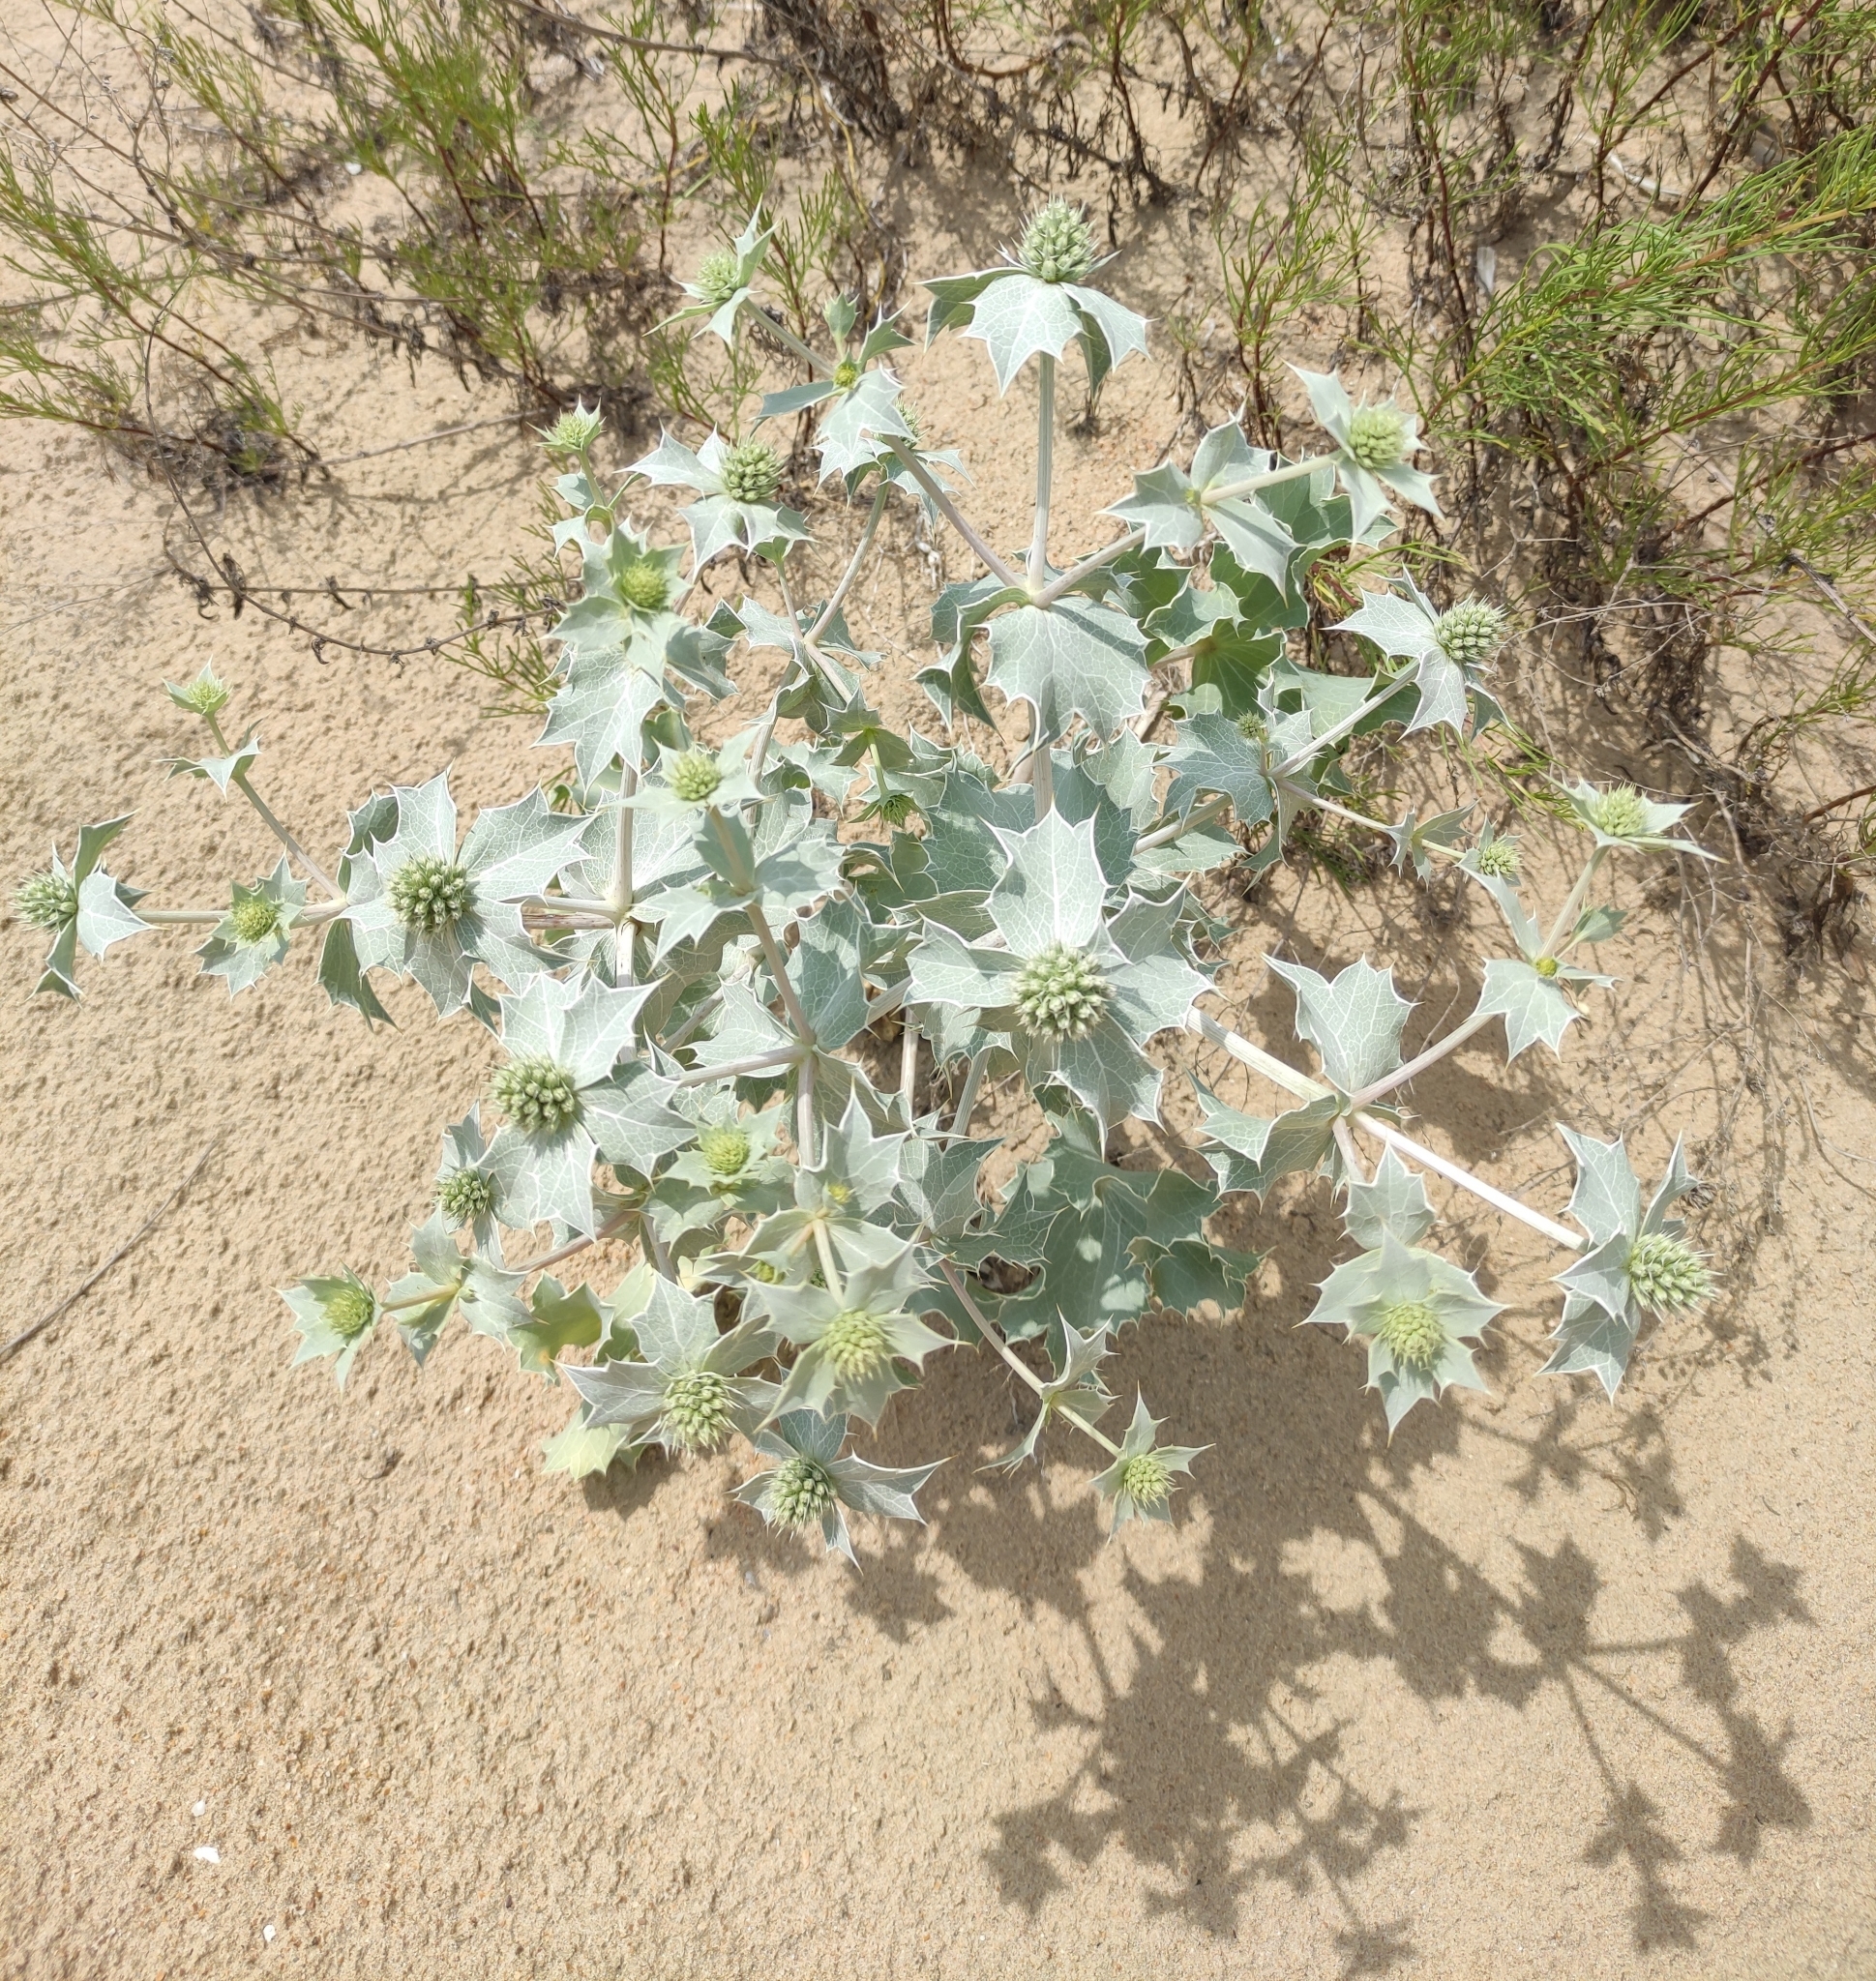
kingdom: Plantae
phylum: Tracheophyta
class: Magnoliopsida
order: Apiales
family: Apiaceae
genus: Eryngium
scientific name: Eryngium maritimum
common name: Sea-holly
